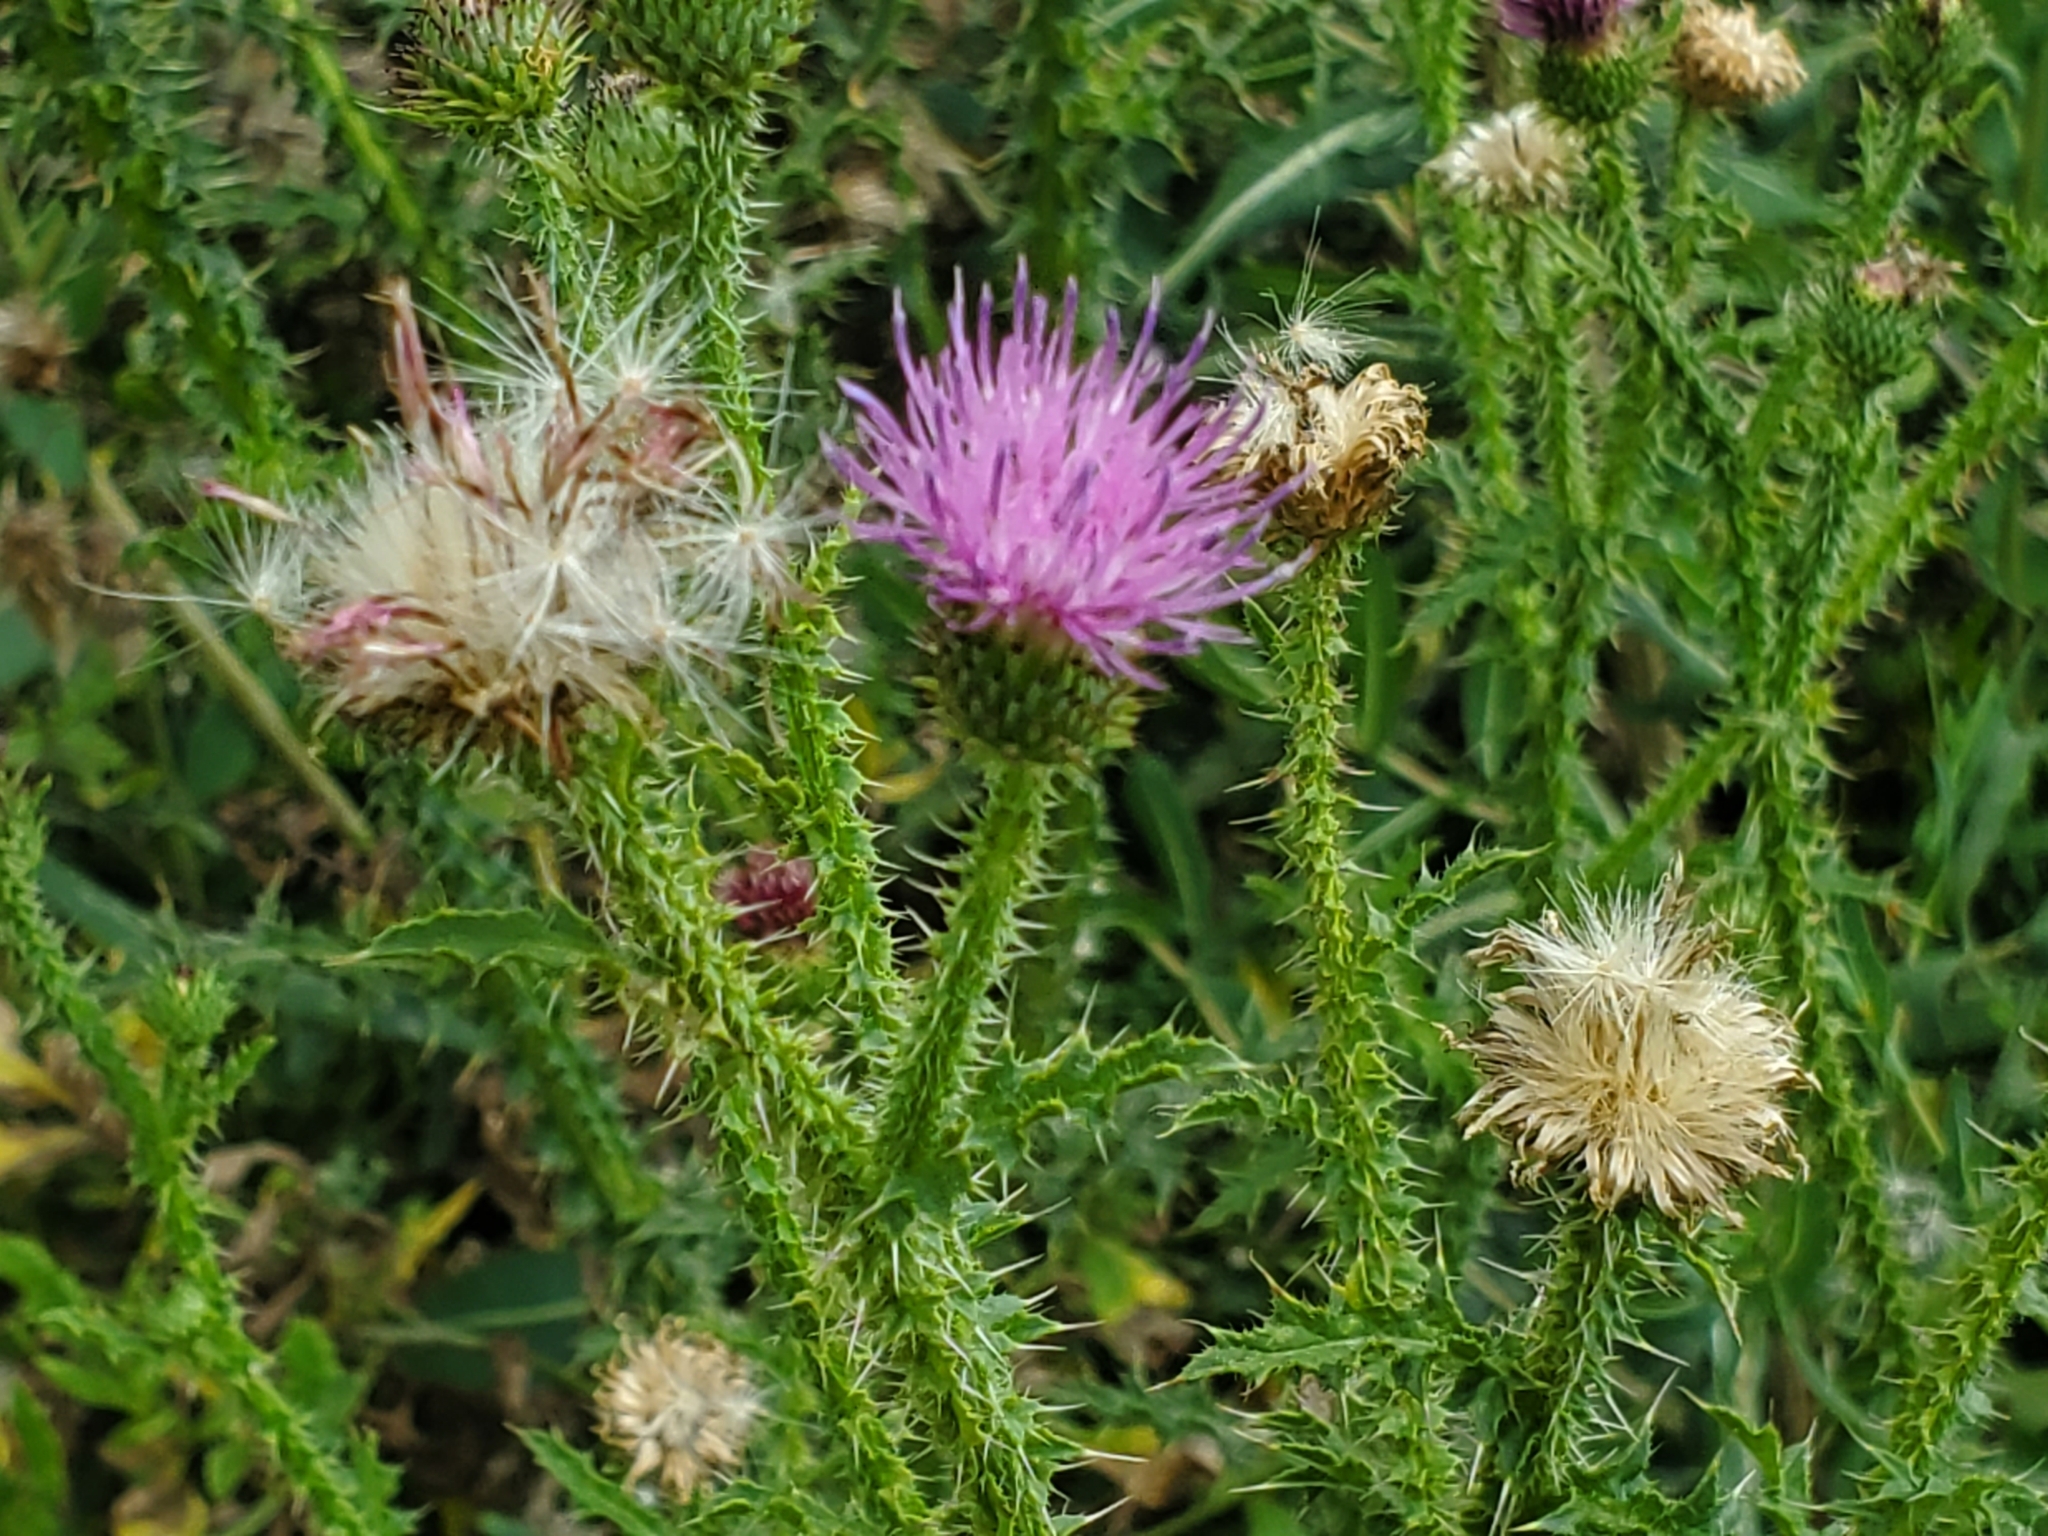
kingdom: Plantae
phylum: Tracheophyta
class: Magnoliopsida
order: Asterales
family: Asteraceae
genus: Carduus
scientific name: Carduus acanthoides
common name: Plumeless thistle
